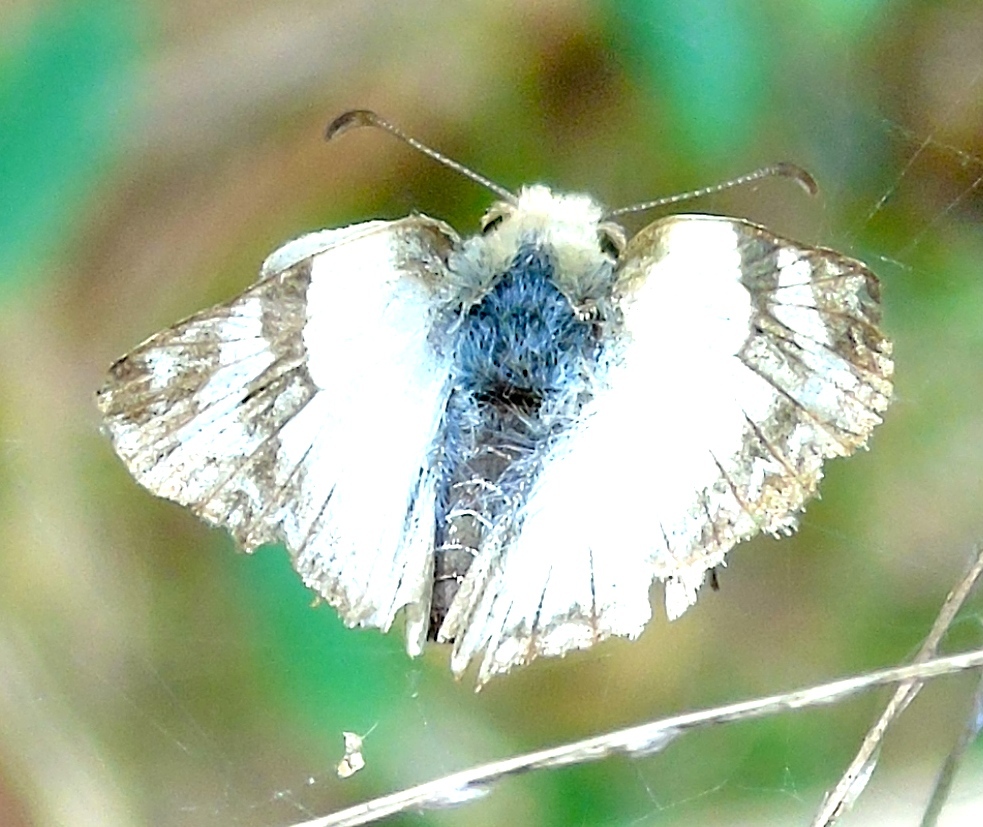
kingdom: Animalia
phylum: Arthropoda
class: Insecta
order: Lepidoptera
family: Hesperiidae
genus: Heliopetes
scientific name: Heliopetes laviana
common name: Laviana white-skipper
